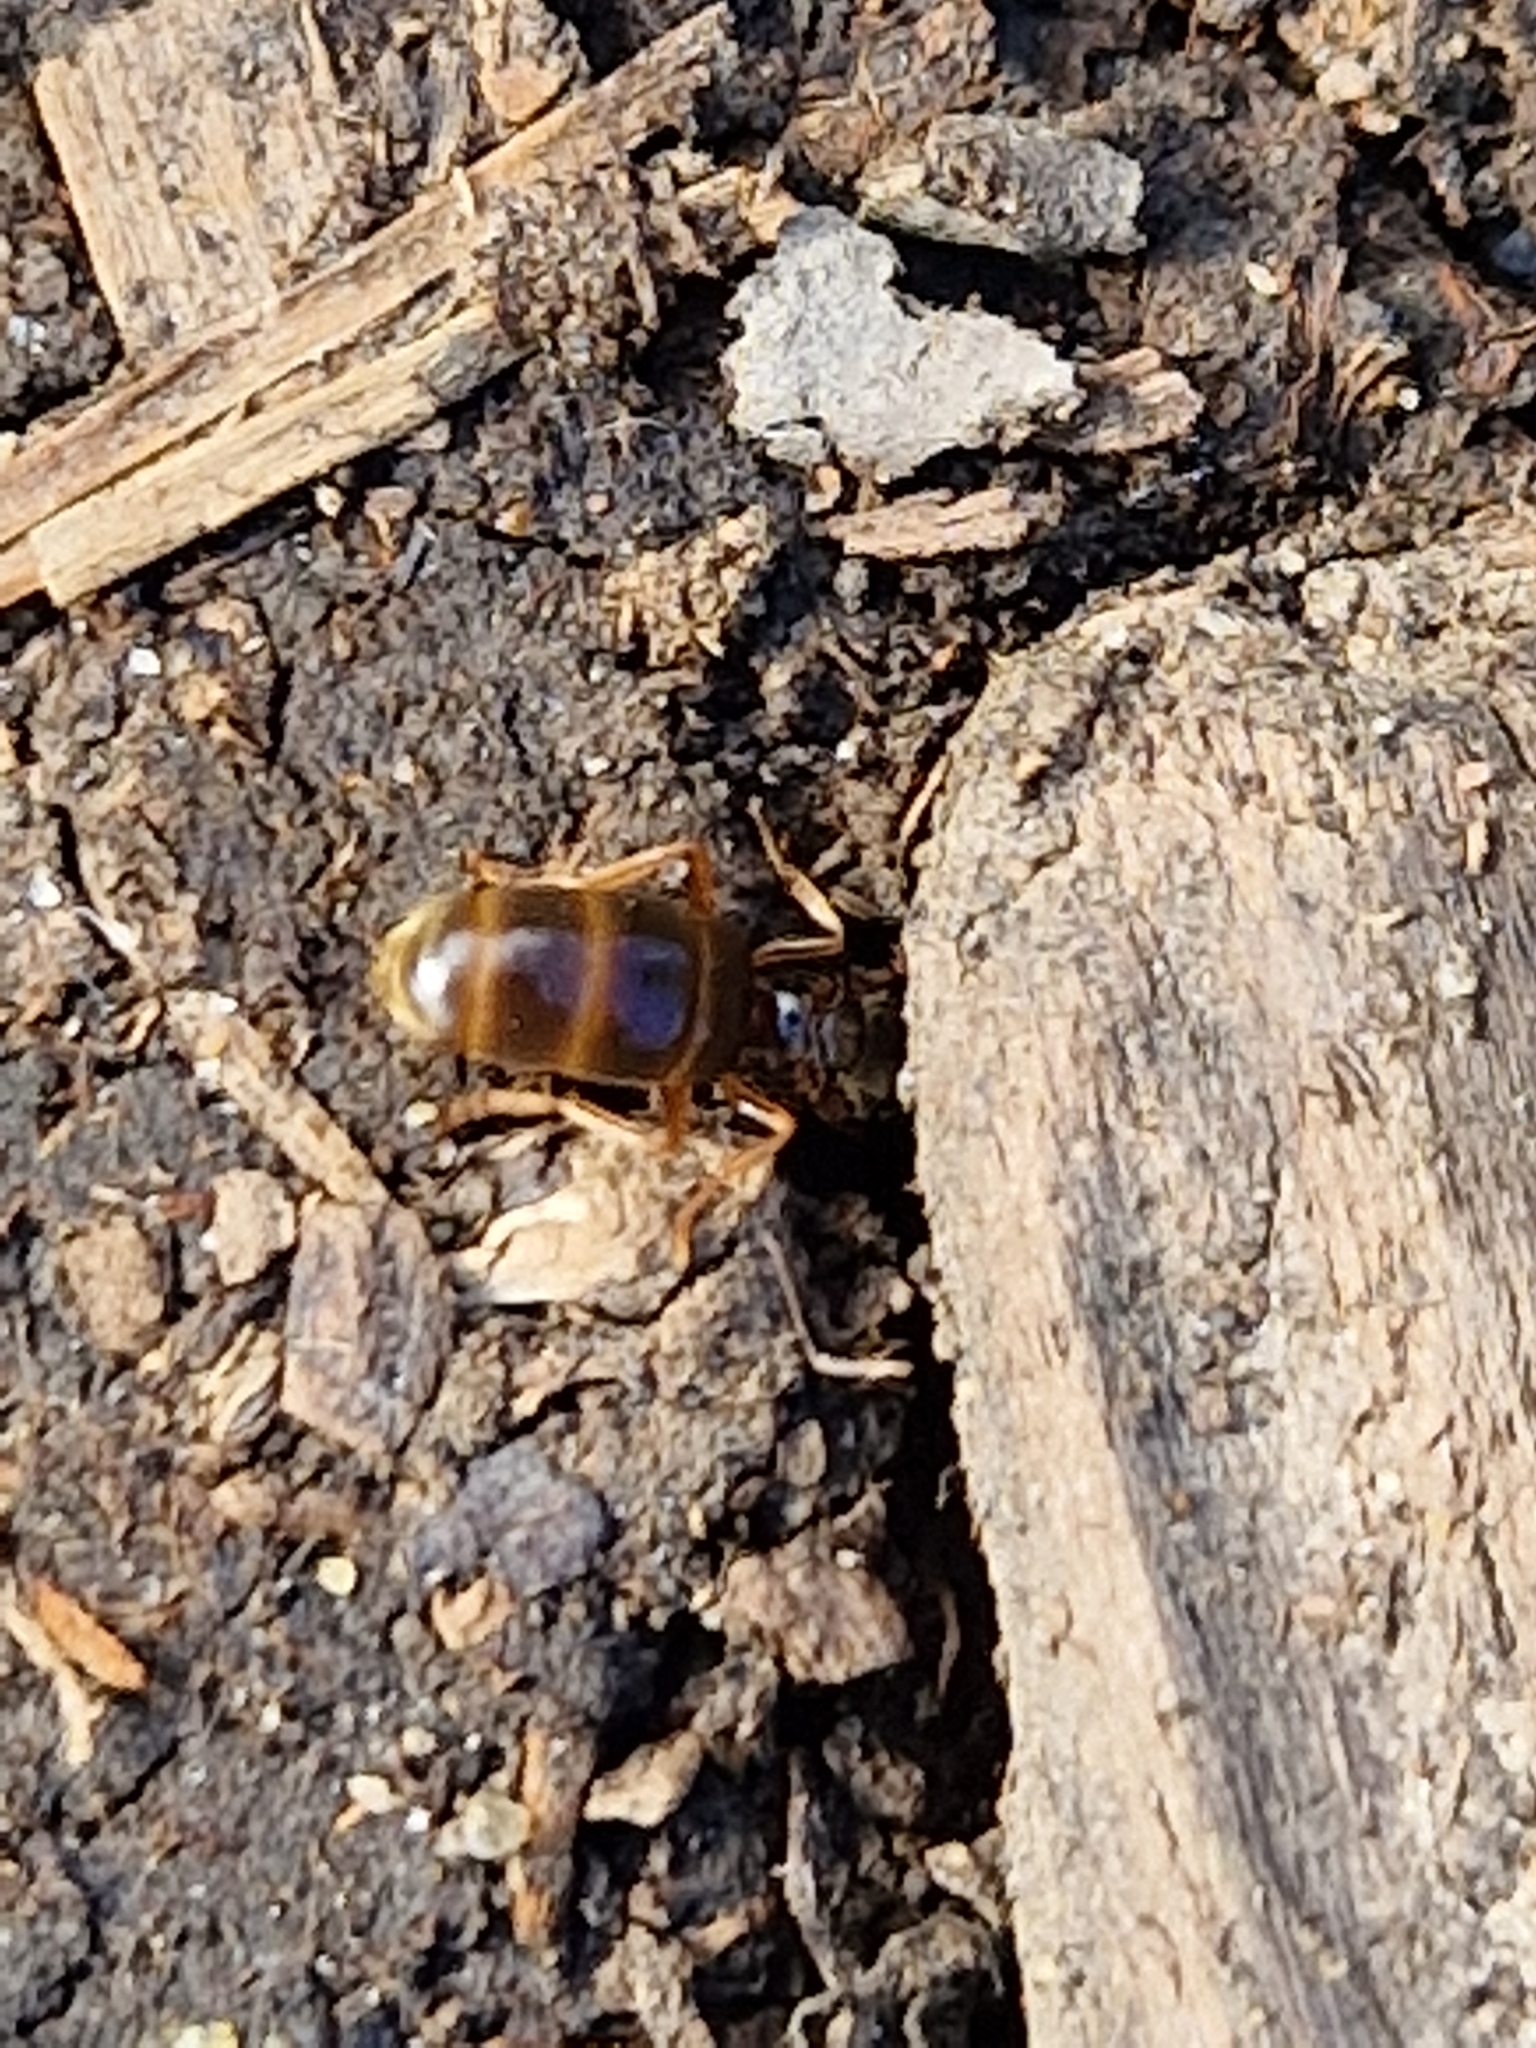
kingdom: Animalia
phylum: Arthropoda
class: Insecta
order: Hymenoptera
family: Formicidae
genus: Lasius
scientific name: Lasius flavus
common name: Blond field ant
